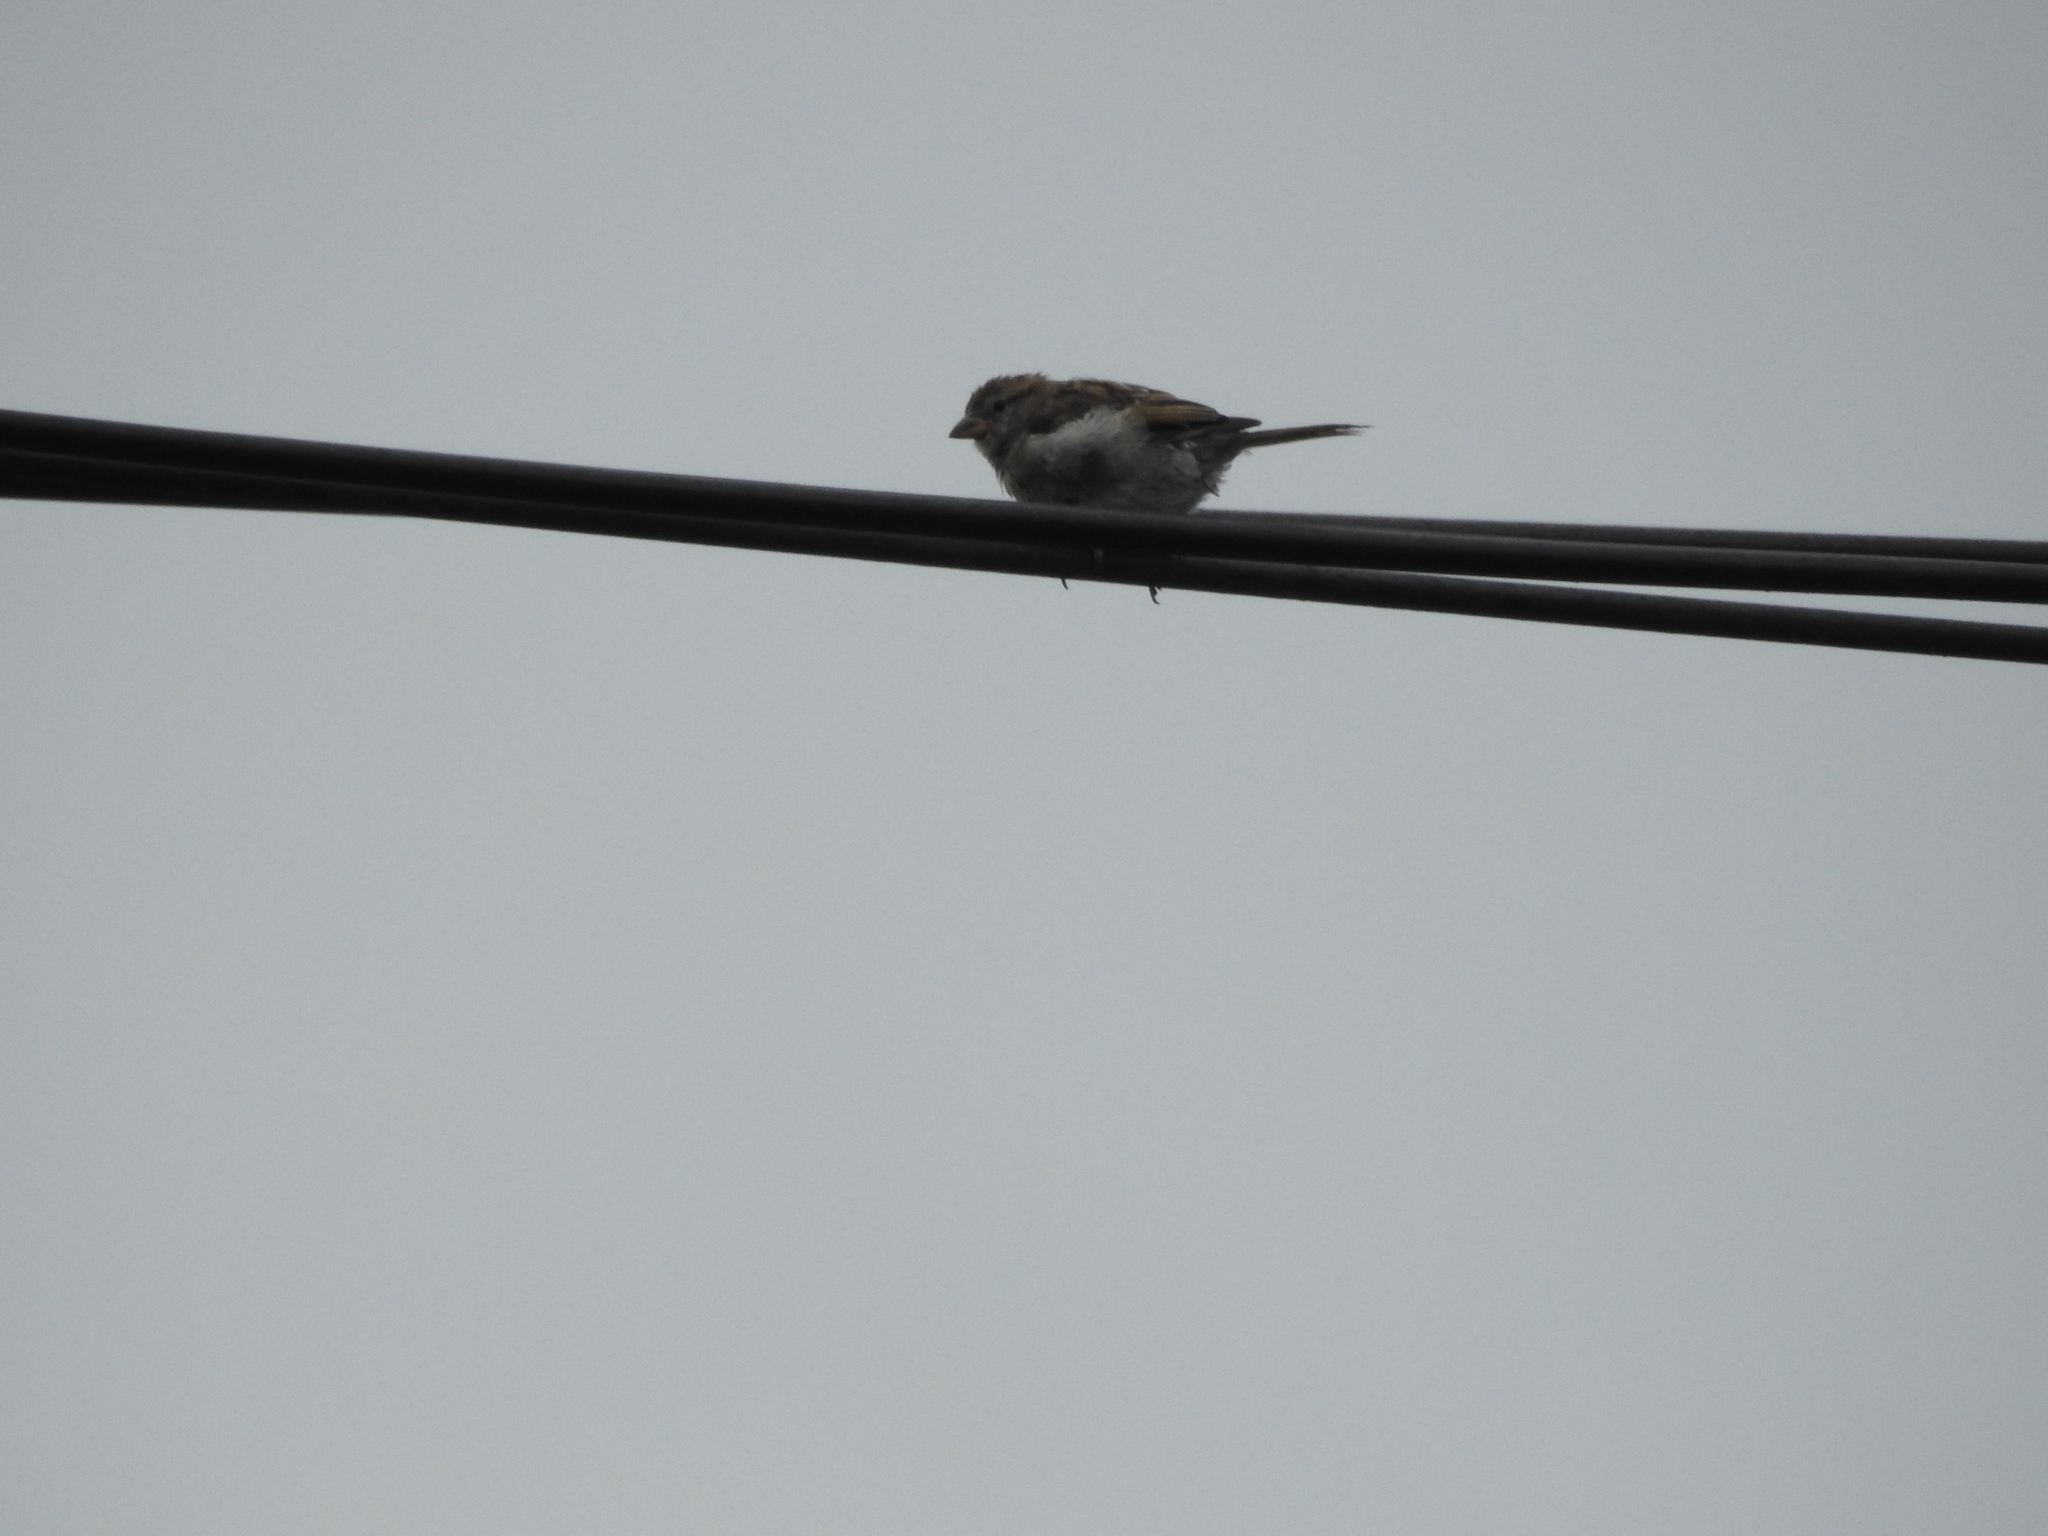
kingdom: Animalia
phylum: Chordata
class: Aves
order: Passeriformes
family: Passeridae
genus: Passer
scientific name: Passer domesticus
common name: House sparrow
